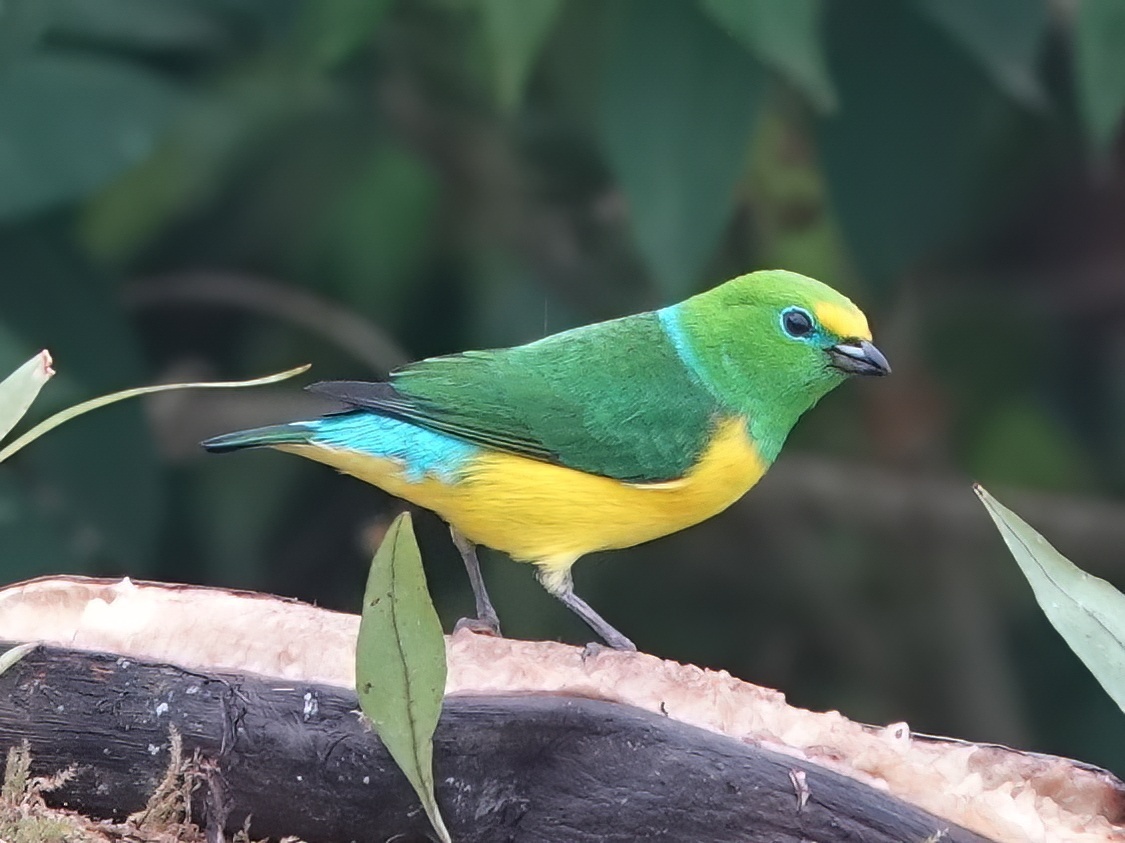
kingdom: Animalia
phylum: Chordata
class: Aves
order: Passeriformes
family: Fringillidae
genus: Chlorophonia
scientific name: Chlorophonia cyanea
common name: Blue-naped chlorophonia
